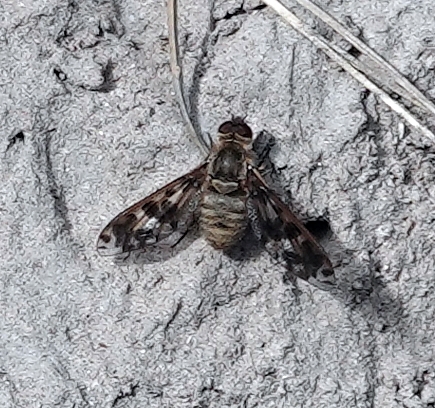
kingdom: Animalia
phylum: Arthropoda
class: Insecta
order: Diptera
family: Bombyliidae
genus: Dipalta
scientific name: Dipalta serpentina
